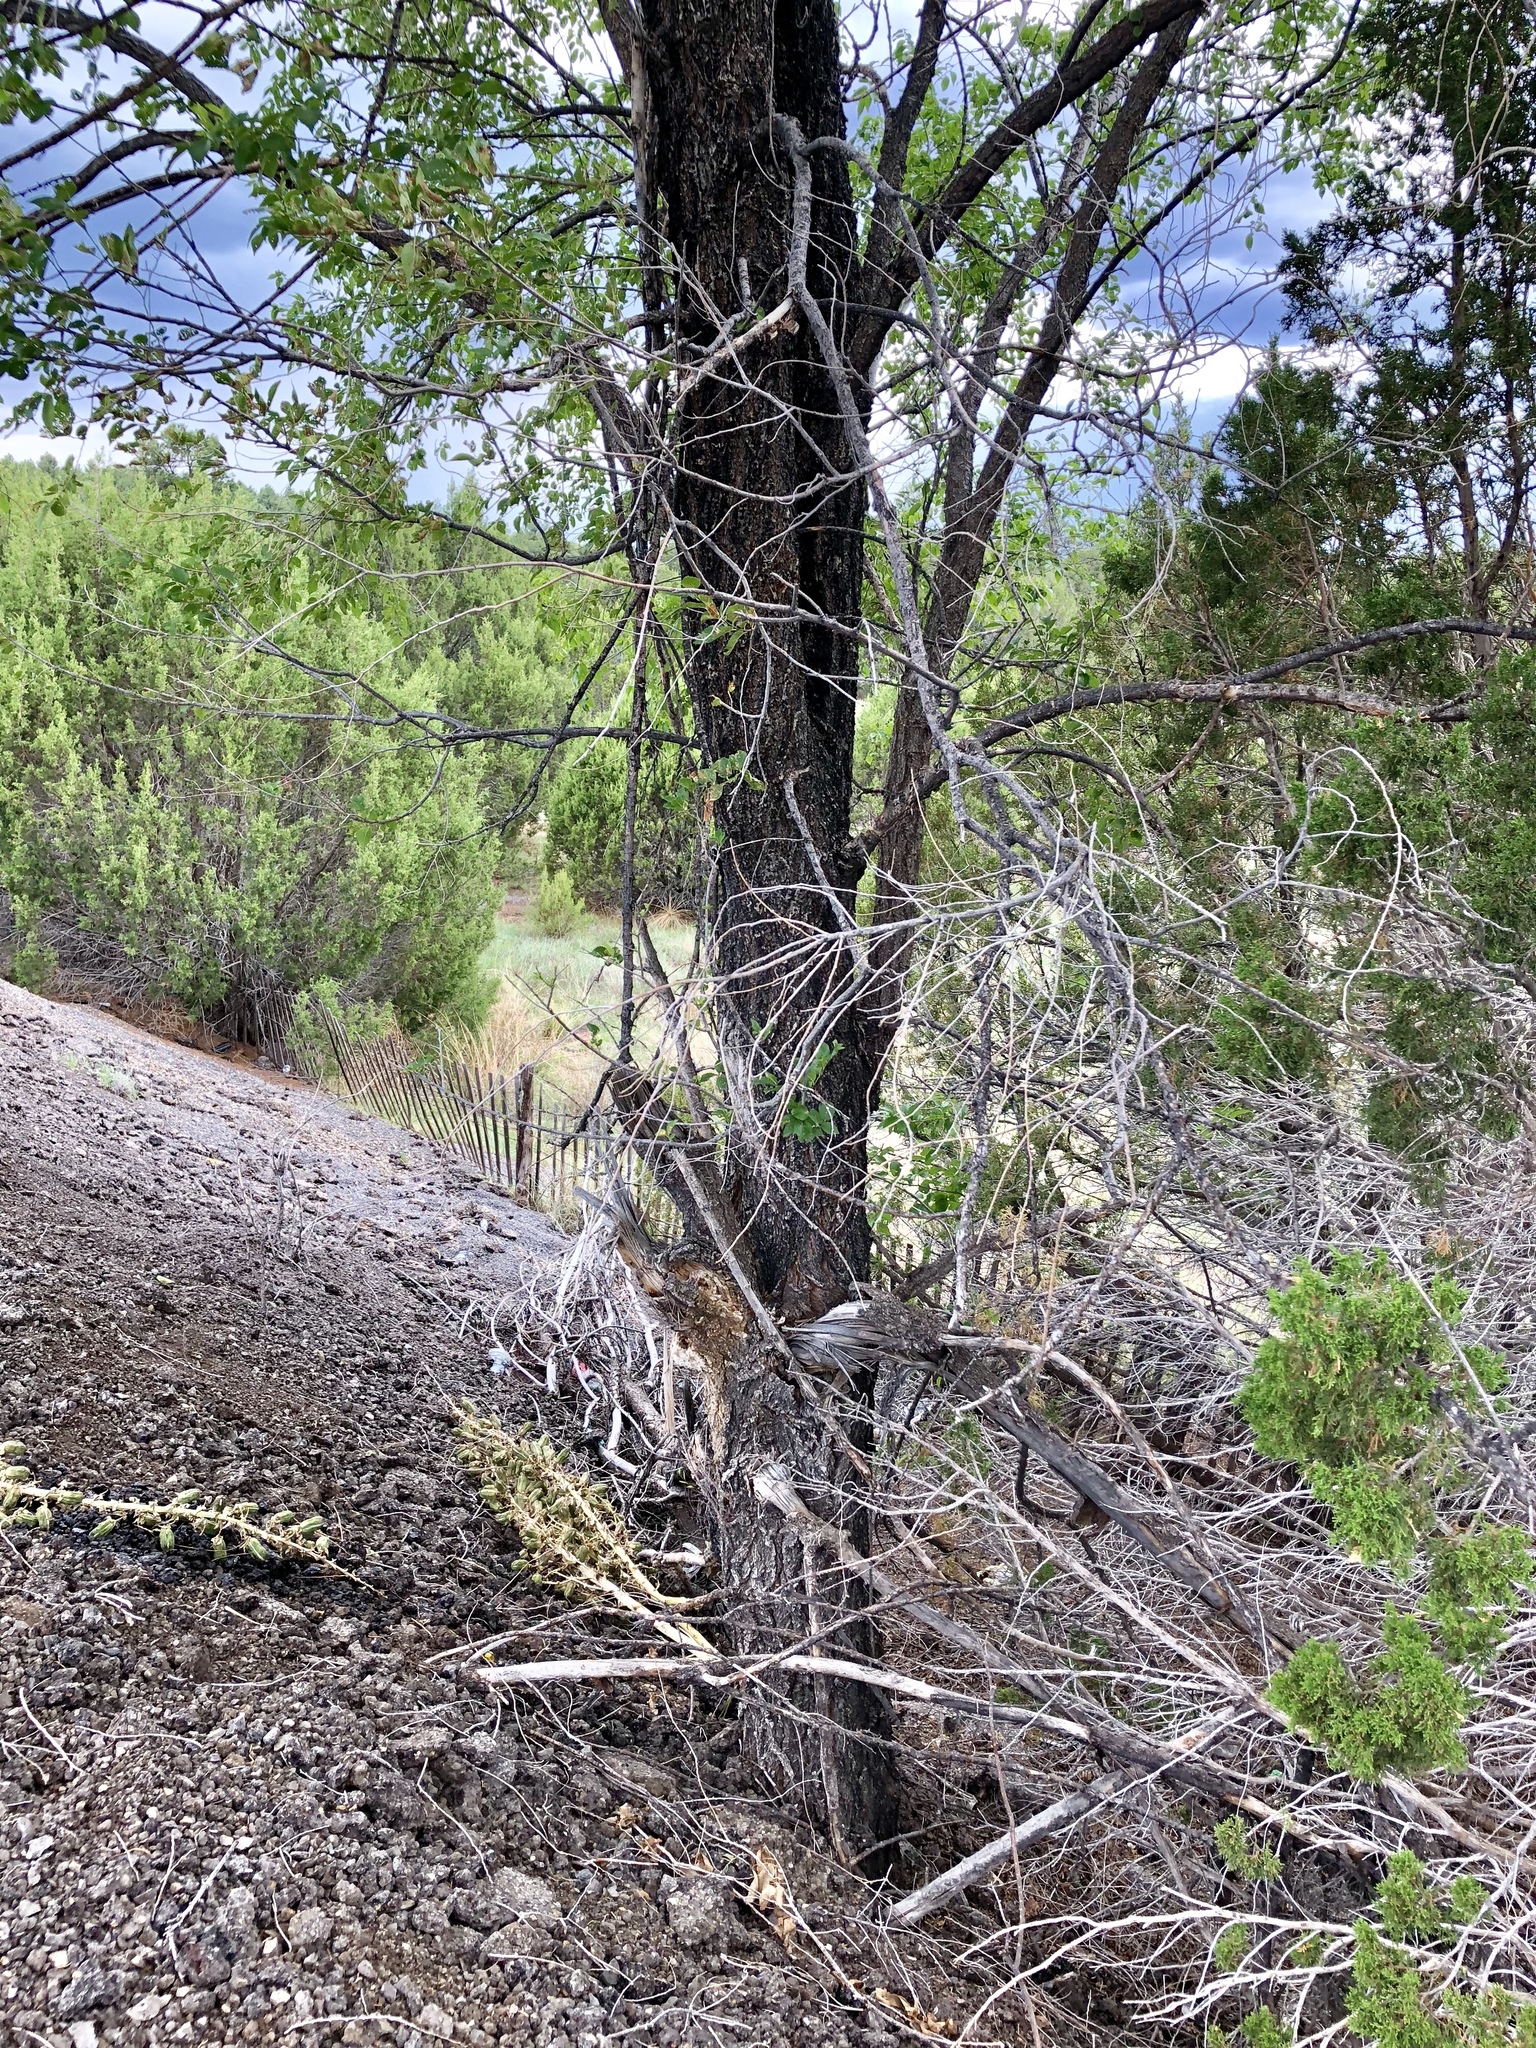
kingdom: Plantae
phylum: Tracheophyta
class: Magnoliopsida
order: Rosales
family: Ulmaceae
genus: Ulmus
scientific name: Ulmus pumila
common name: Siberian elm
